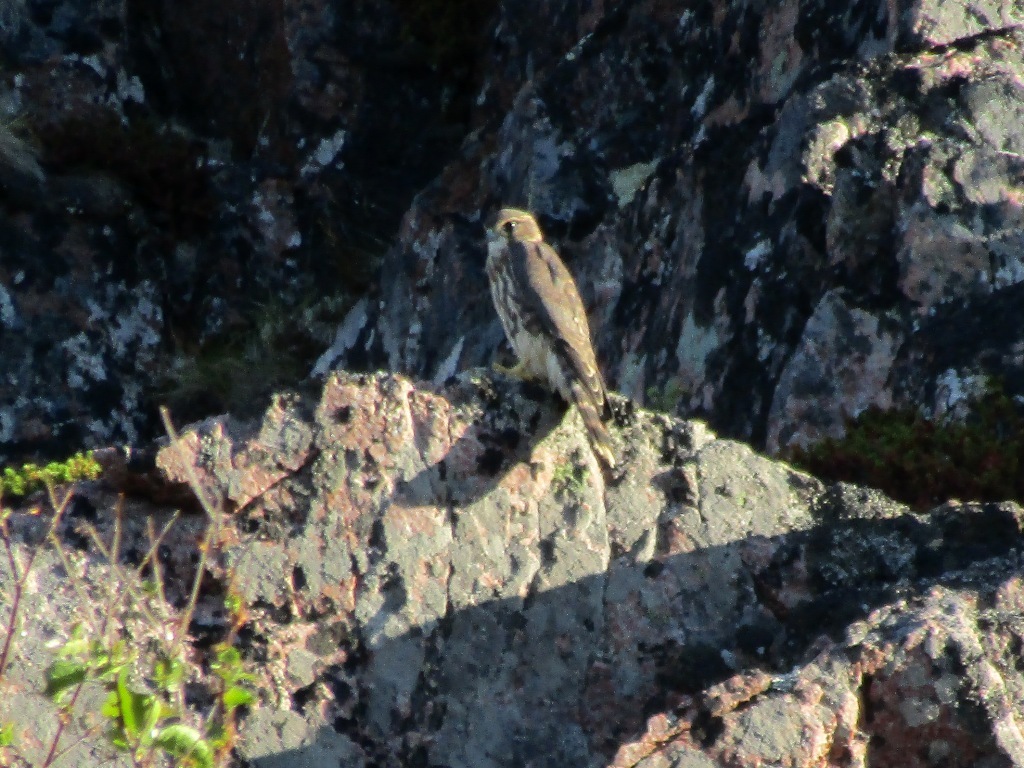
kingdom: Animalia
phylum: Chordata
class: Aves
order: Falconiformes
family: Falconidae
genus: Falco
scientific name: Falco columbarius
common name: Merlin
